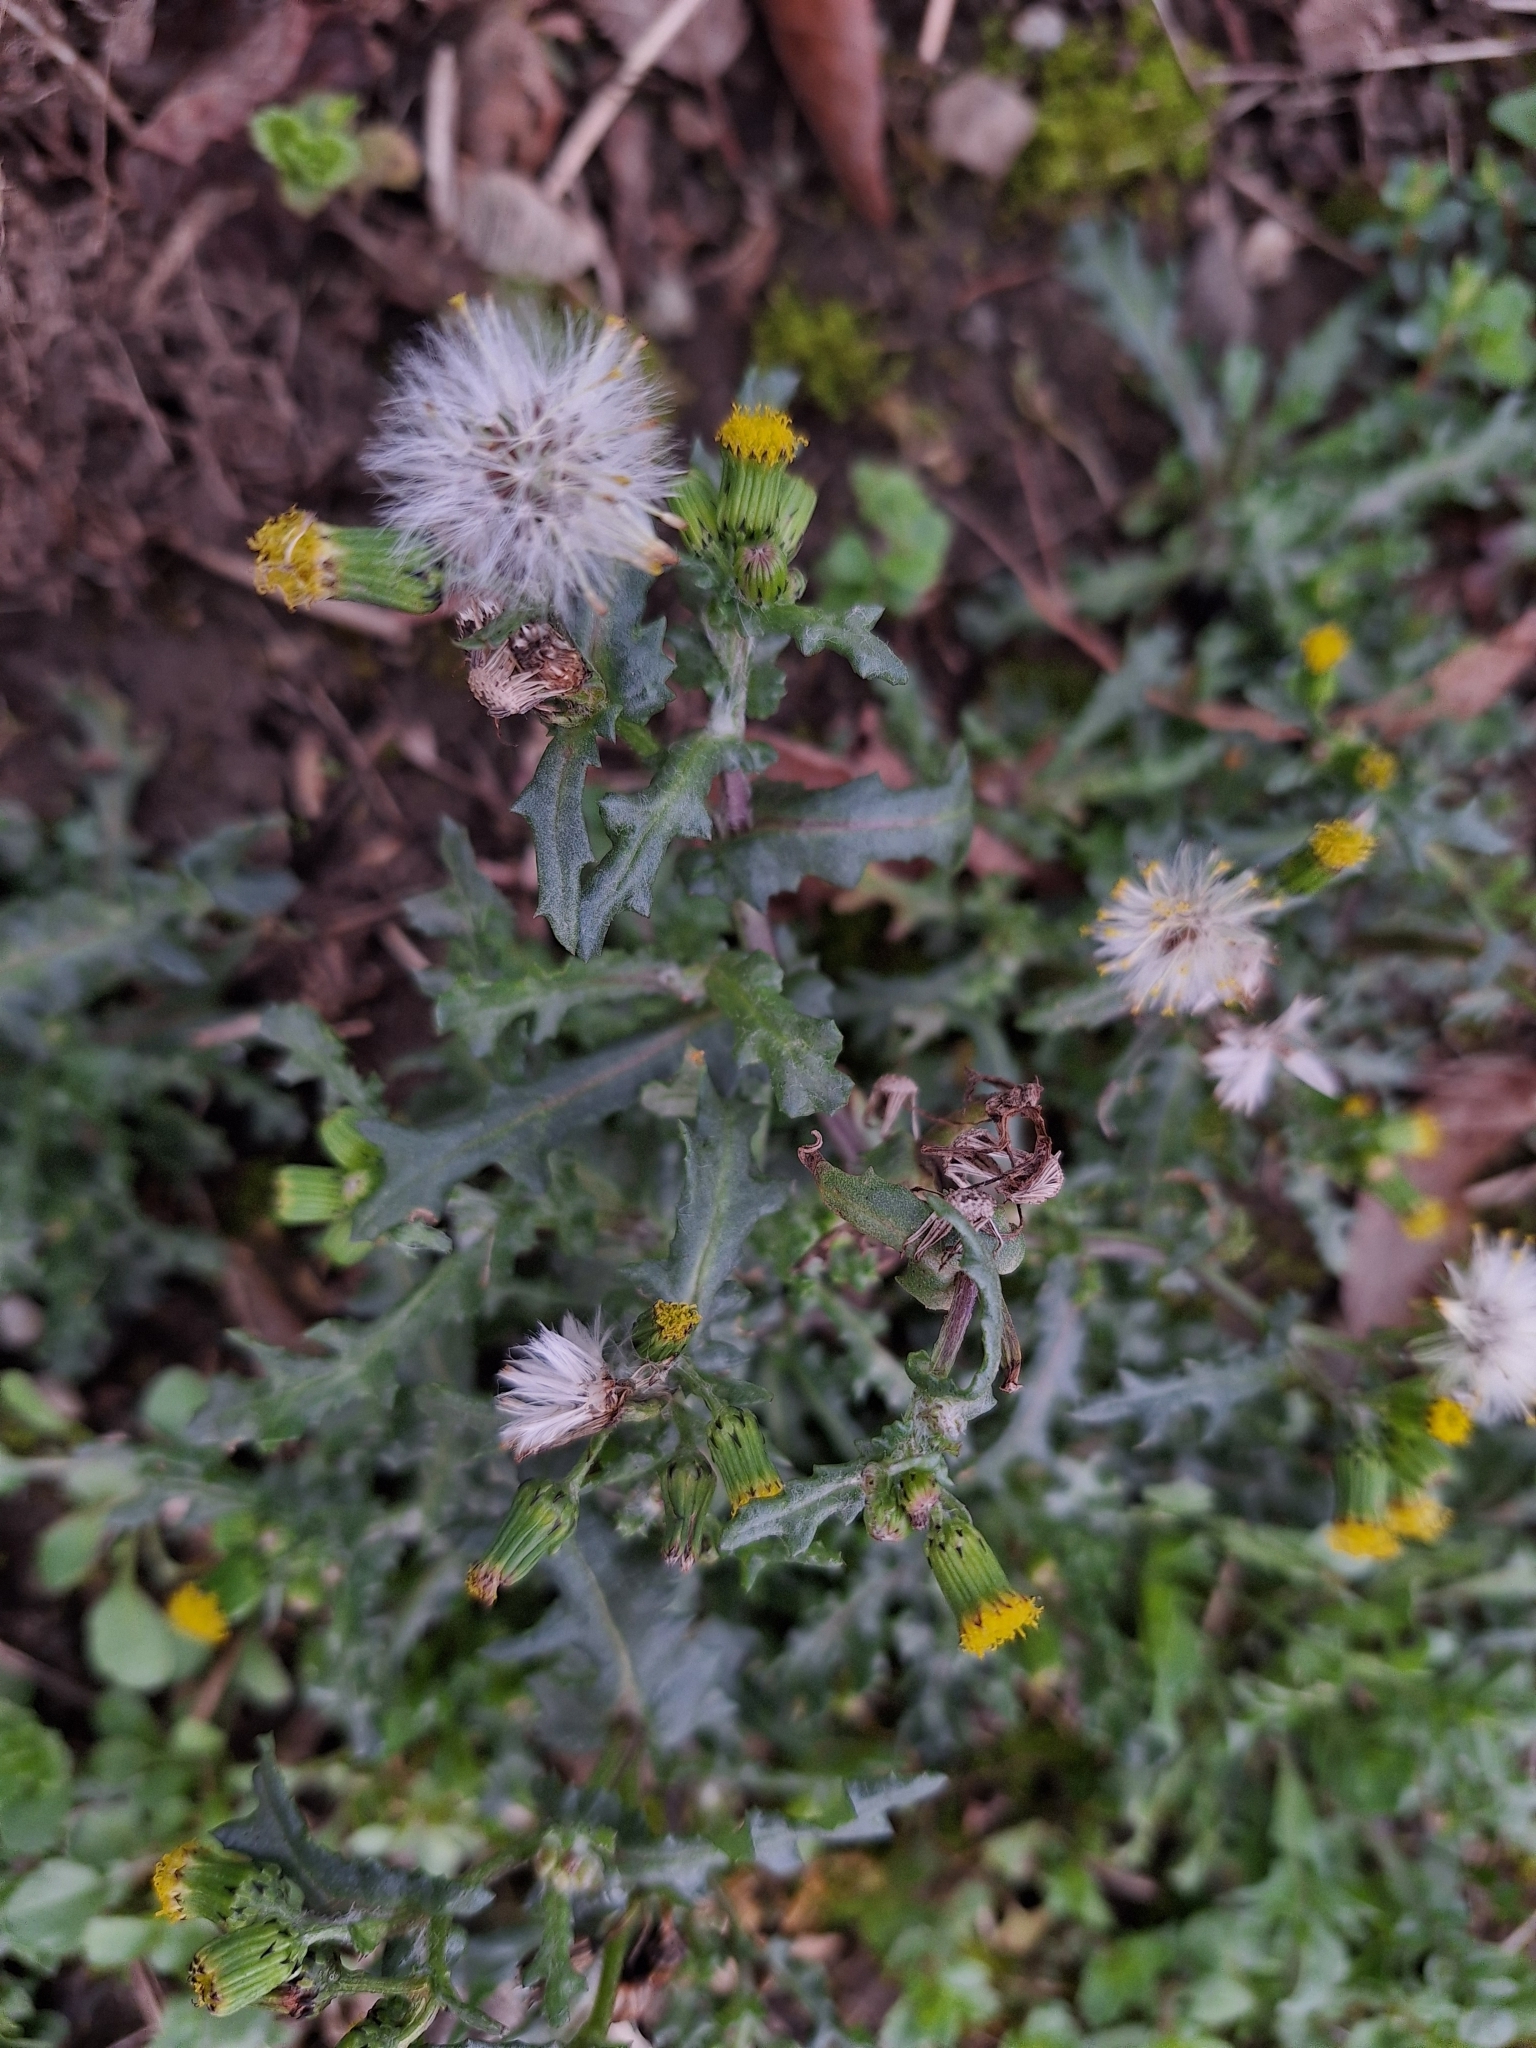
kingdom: Plantae
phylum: Tracheophyta
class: Magnoliopsida
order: Asterales
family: Asteraceae
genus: Senecio
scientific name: Senecio vulgaris
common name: Old-man-in-the-spring
